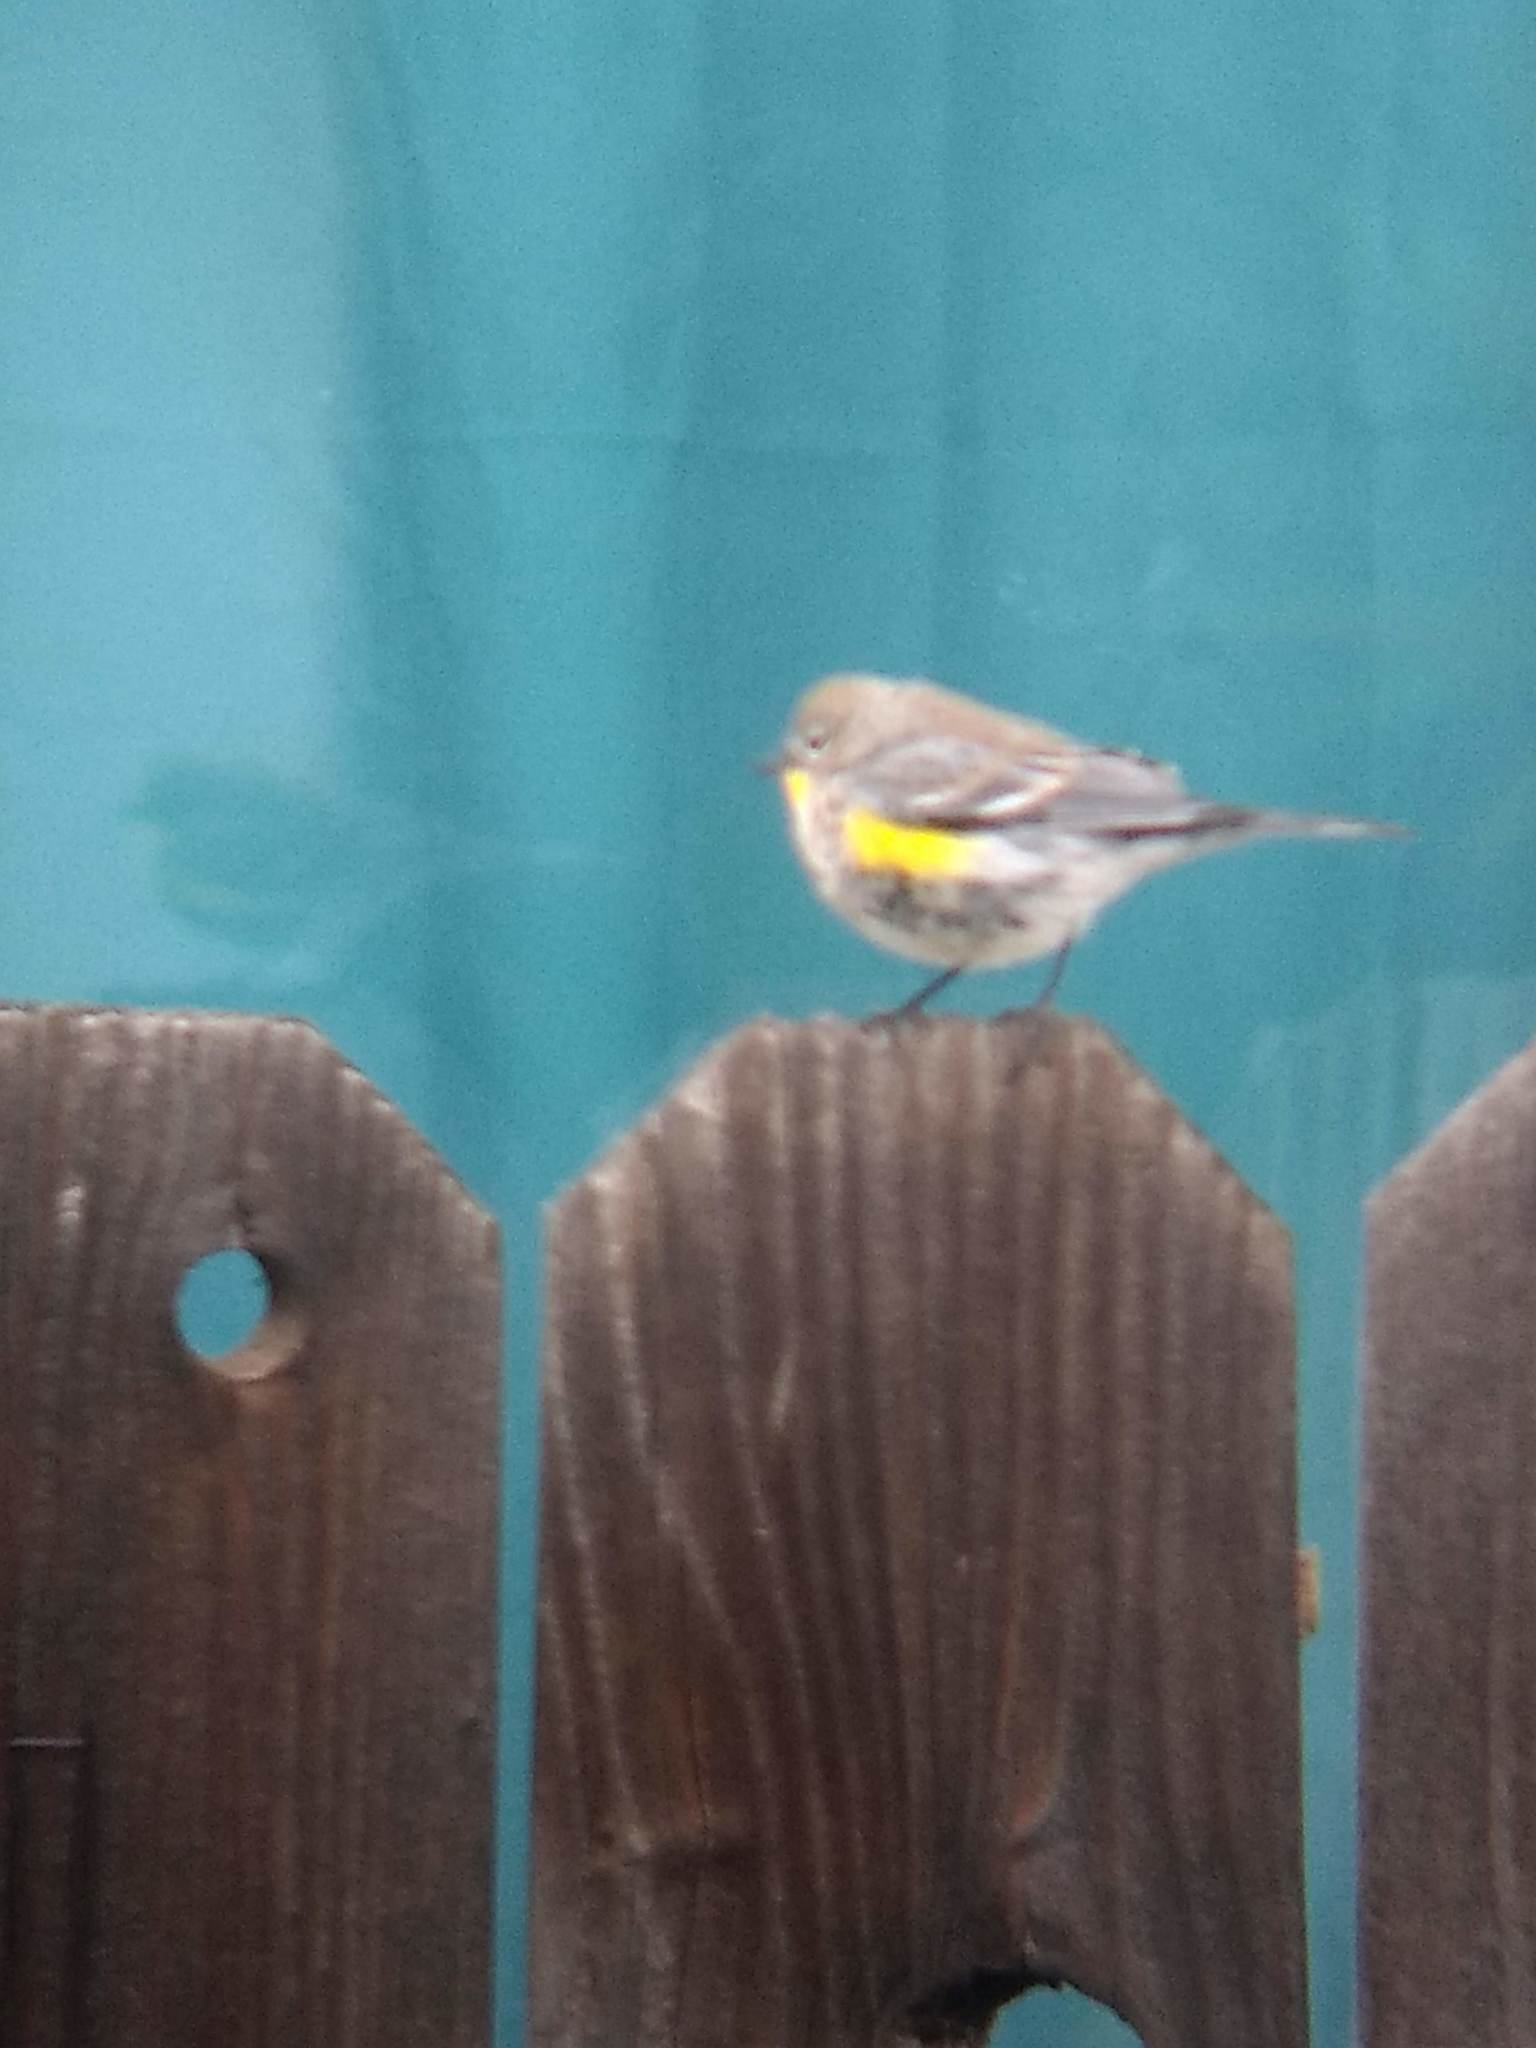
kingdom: Animalia
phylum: Chordata
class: Aves
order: Passeriformes
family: Parulidae
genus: Setophaga
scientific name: Setophaga coronata
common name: Myrtle warbler
